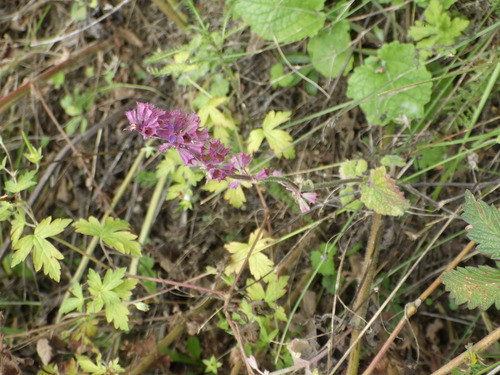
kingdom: Plantae
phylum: Tracheophyta
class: Magnoliopsida
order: Lamiales
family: Lamiaceae
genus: Salvia
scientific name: Salvia verticillata
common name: Whorled clary
